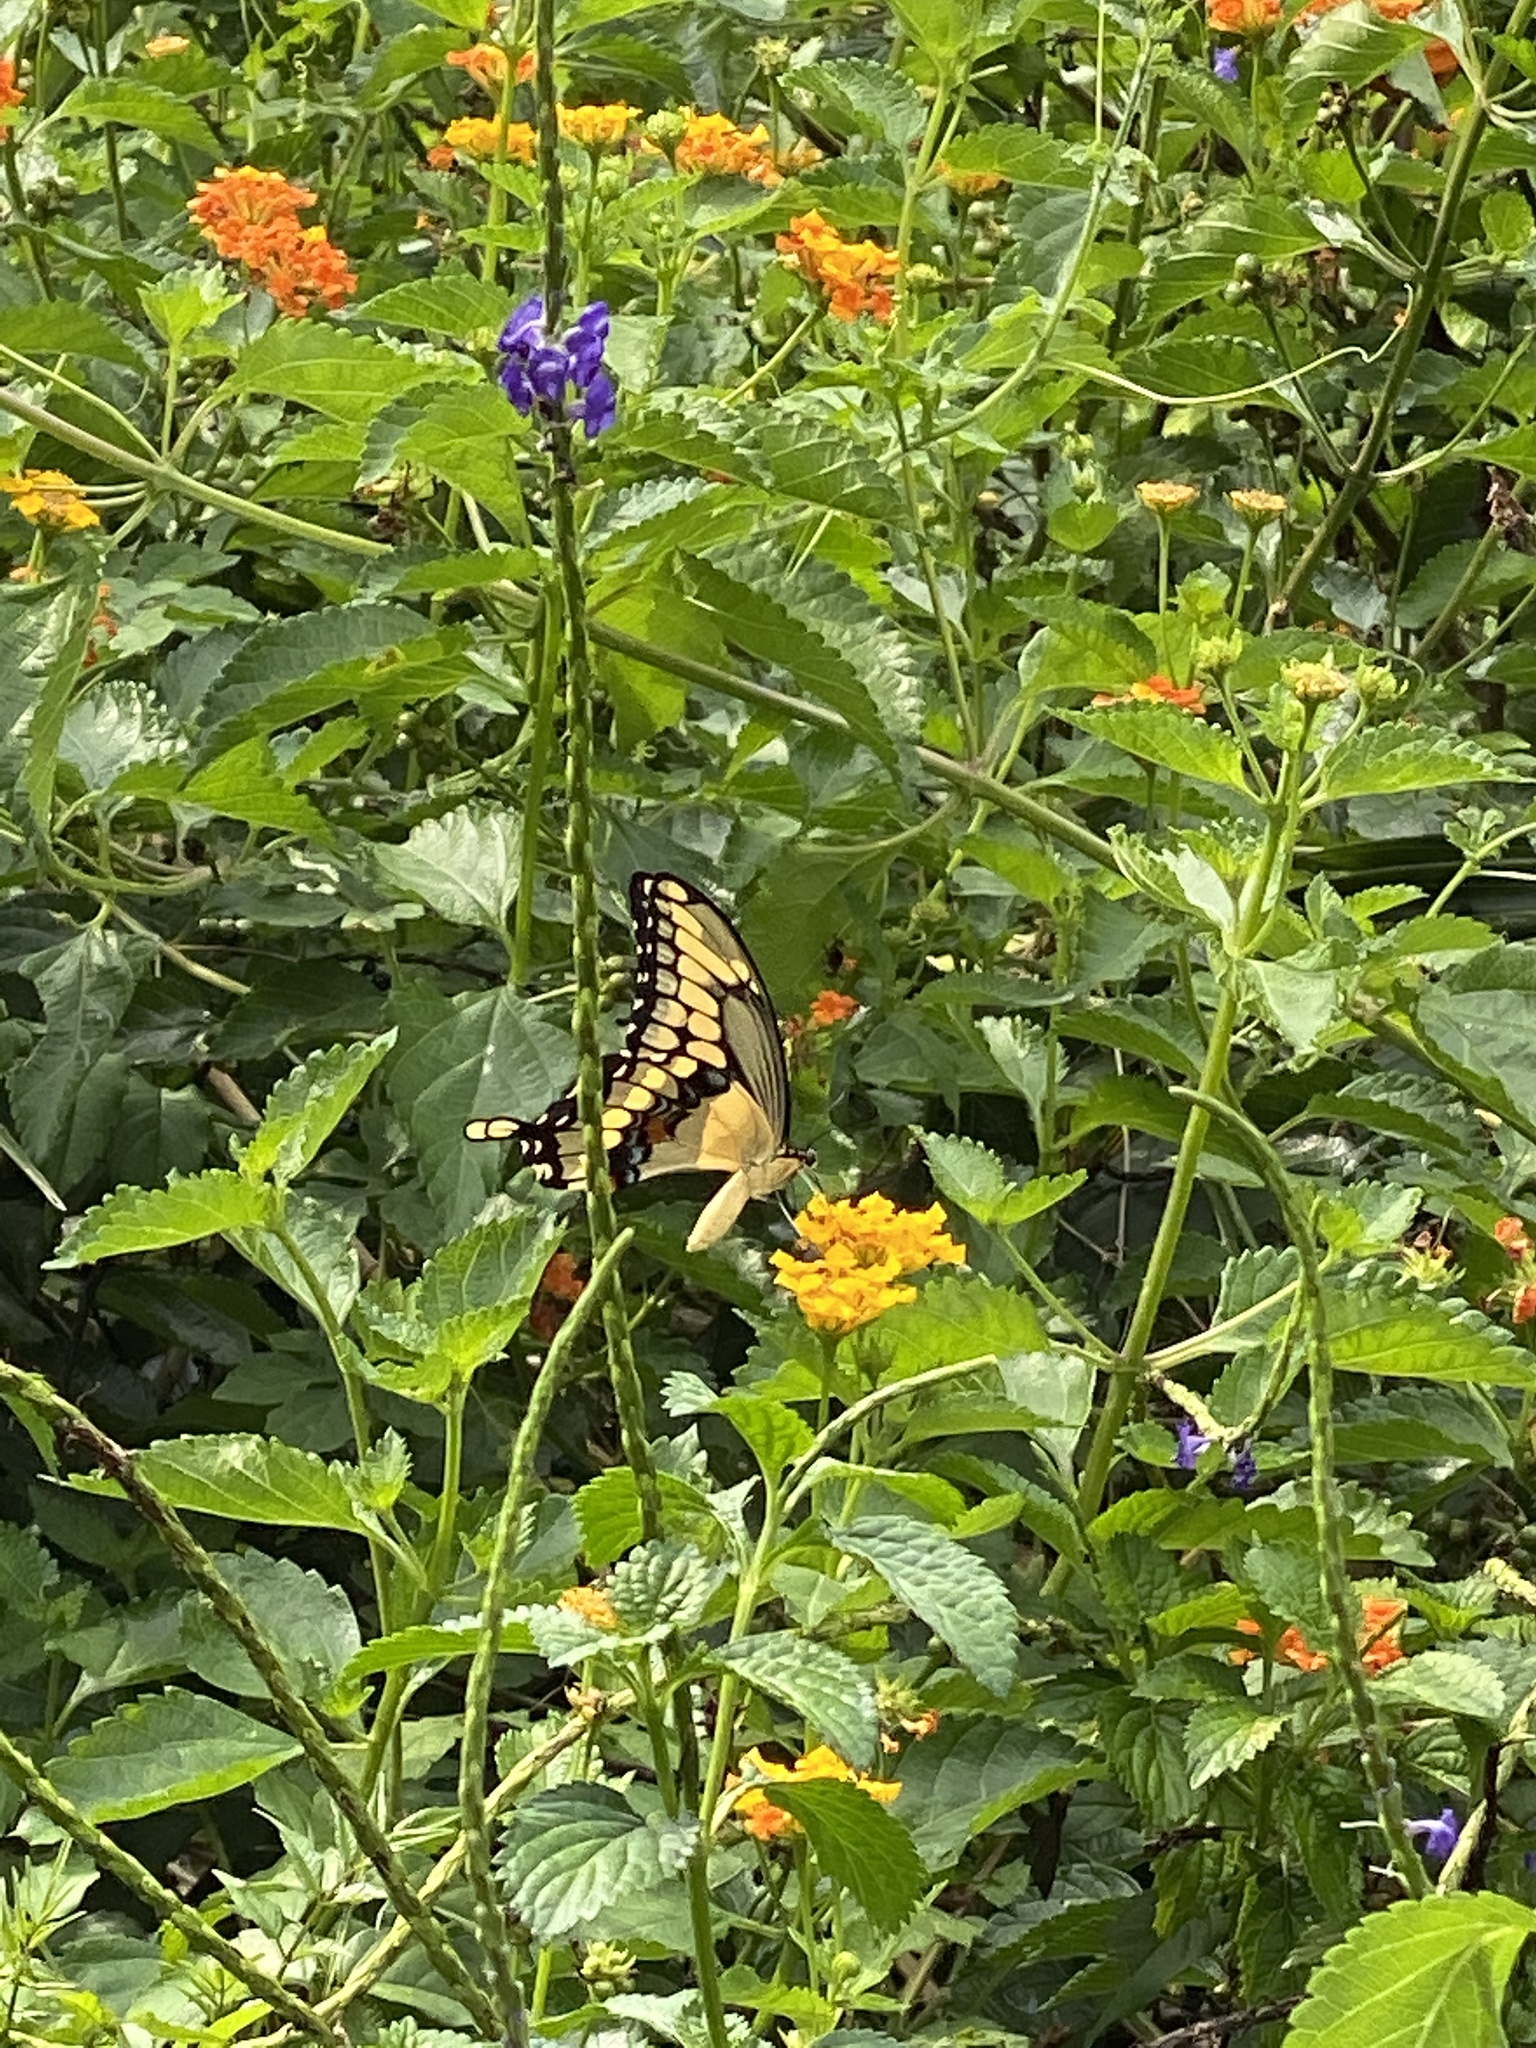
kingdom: Animalia
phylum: Arthropoda
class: Insecta
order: Lepidoptera
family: Papilionidae
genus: Papilio
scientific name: Papilio cresphontes
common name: Giant swallowtail
